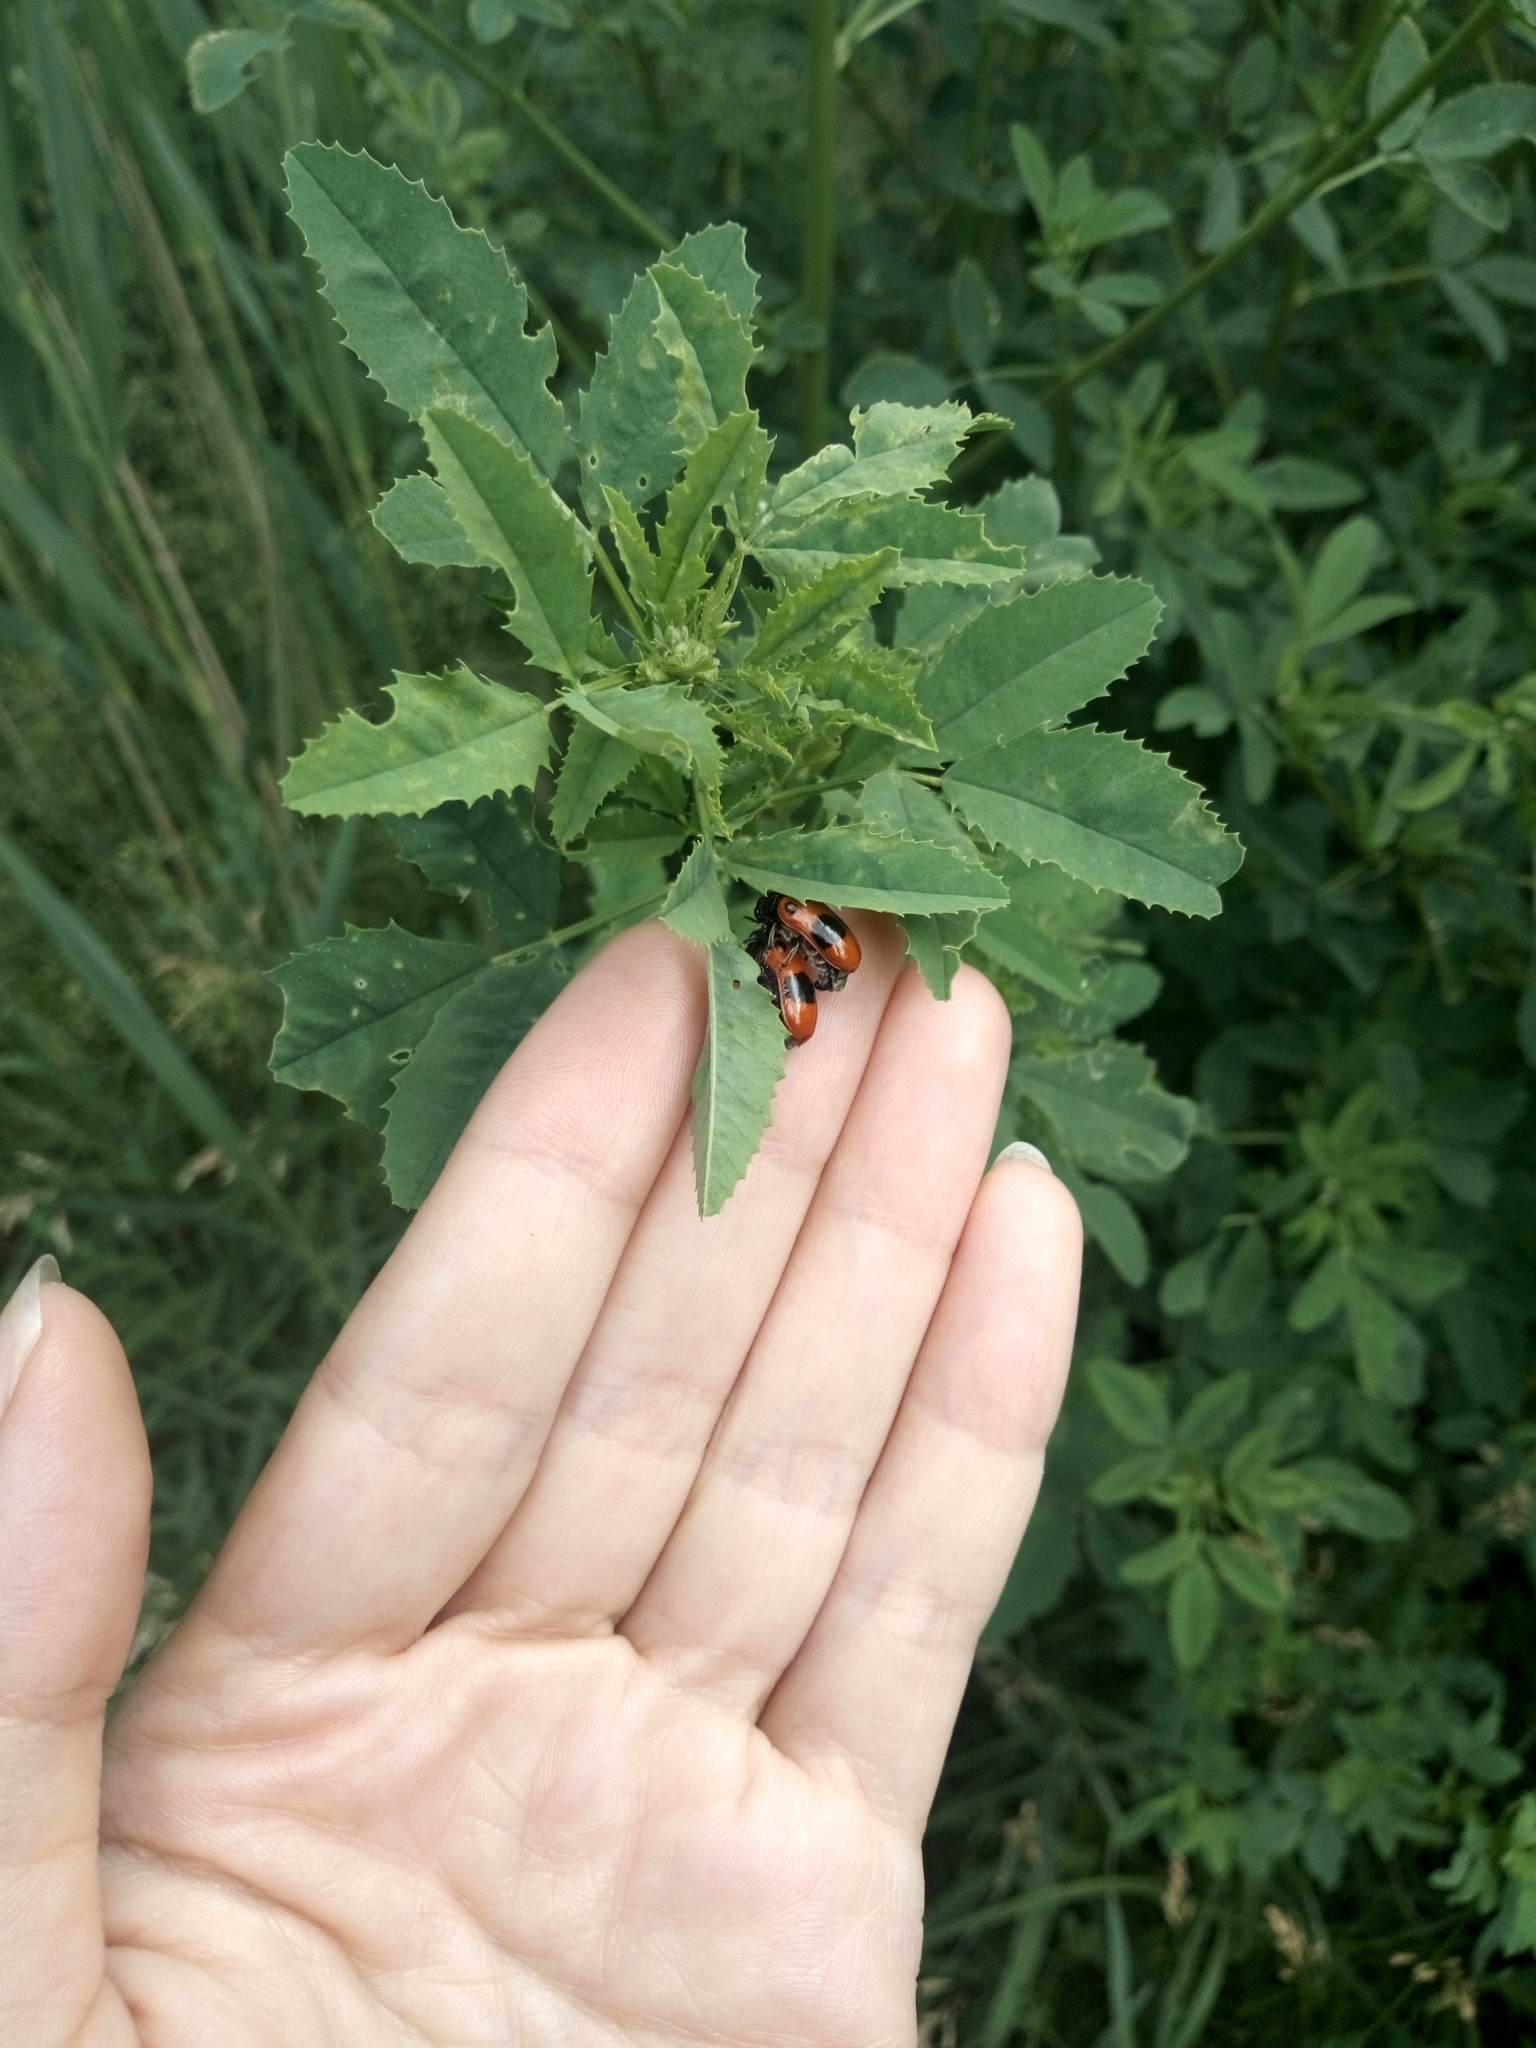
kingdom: Animalia
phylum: Arthropoda
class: Insecta
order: Coleoptera
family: Chrysomelidae
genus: Clytra
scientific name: Clytra laeviuscula
